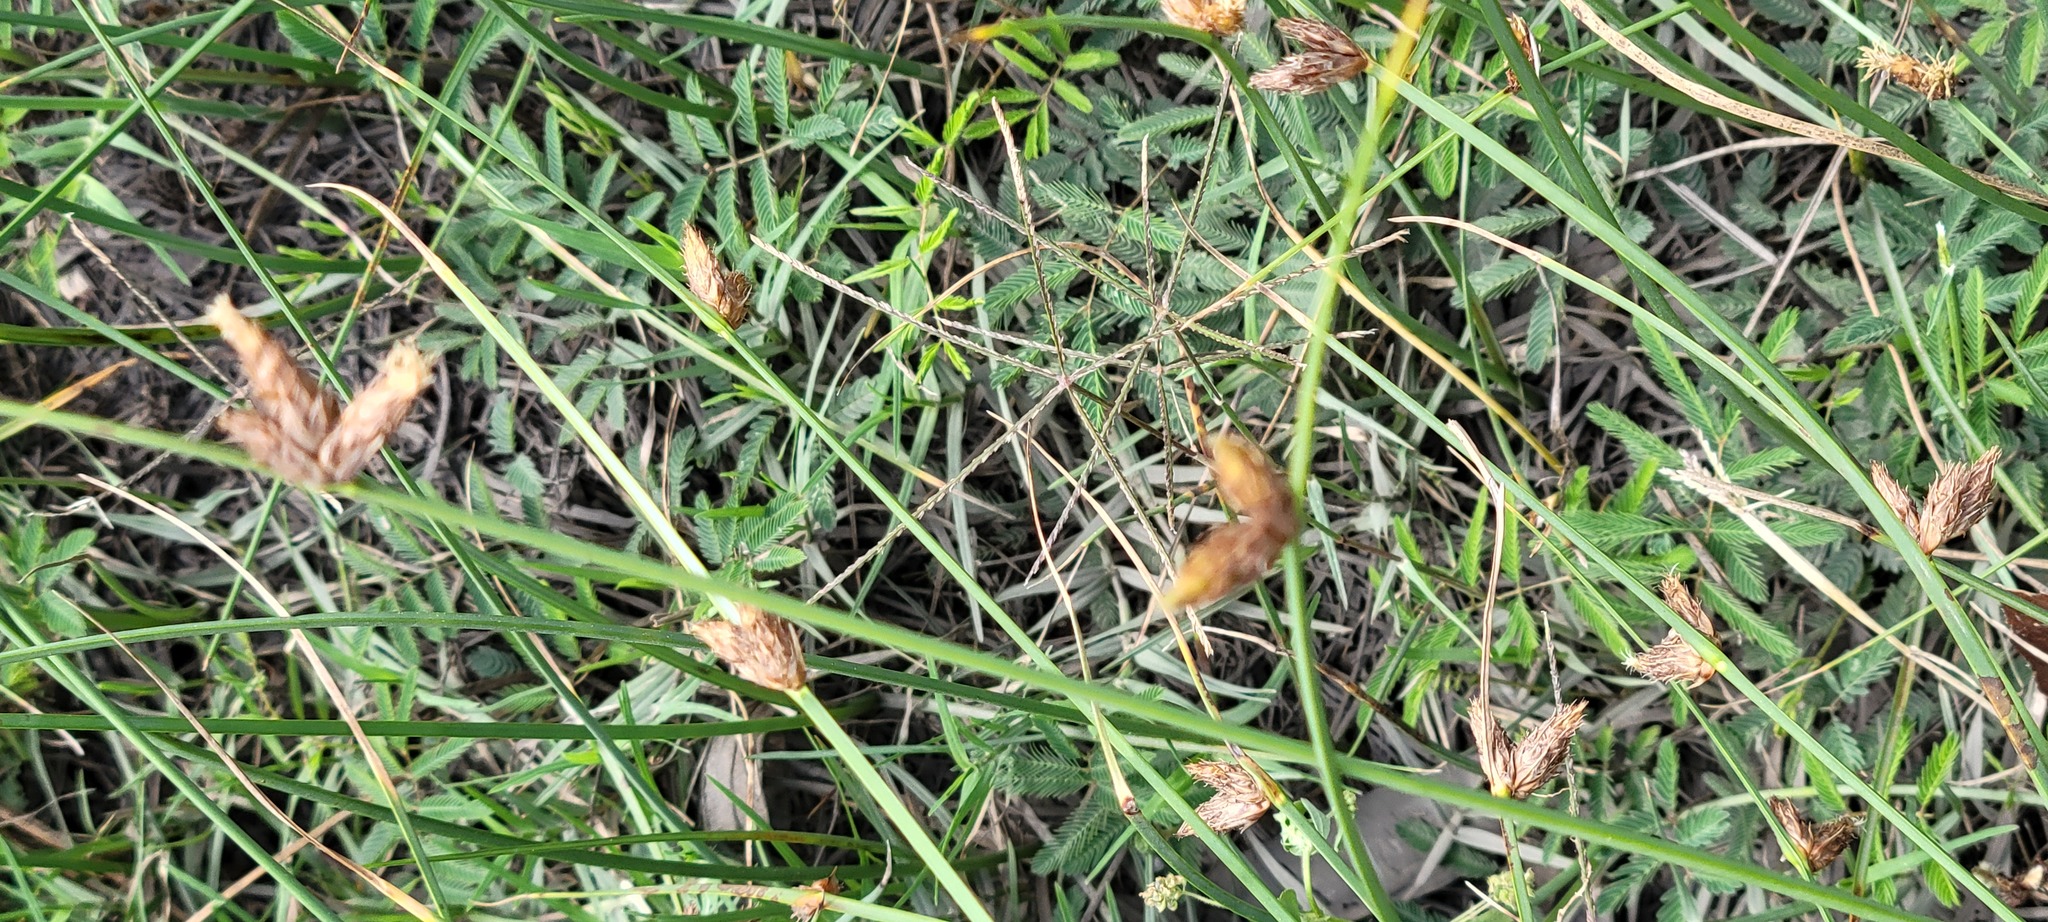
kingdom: Plantae
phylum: Tracheophyta
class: Liliopsida
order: Poales
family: Cyperaceae
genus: Schoenoplectiella
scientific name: Schoenoplectiella erecta
